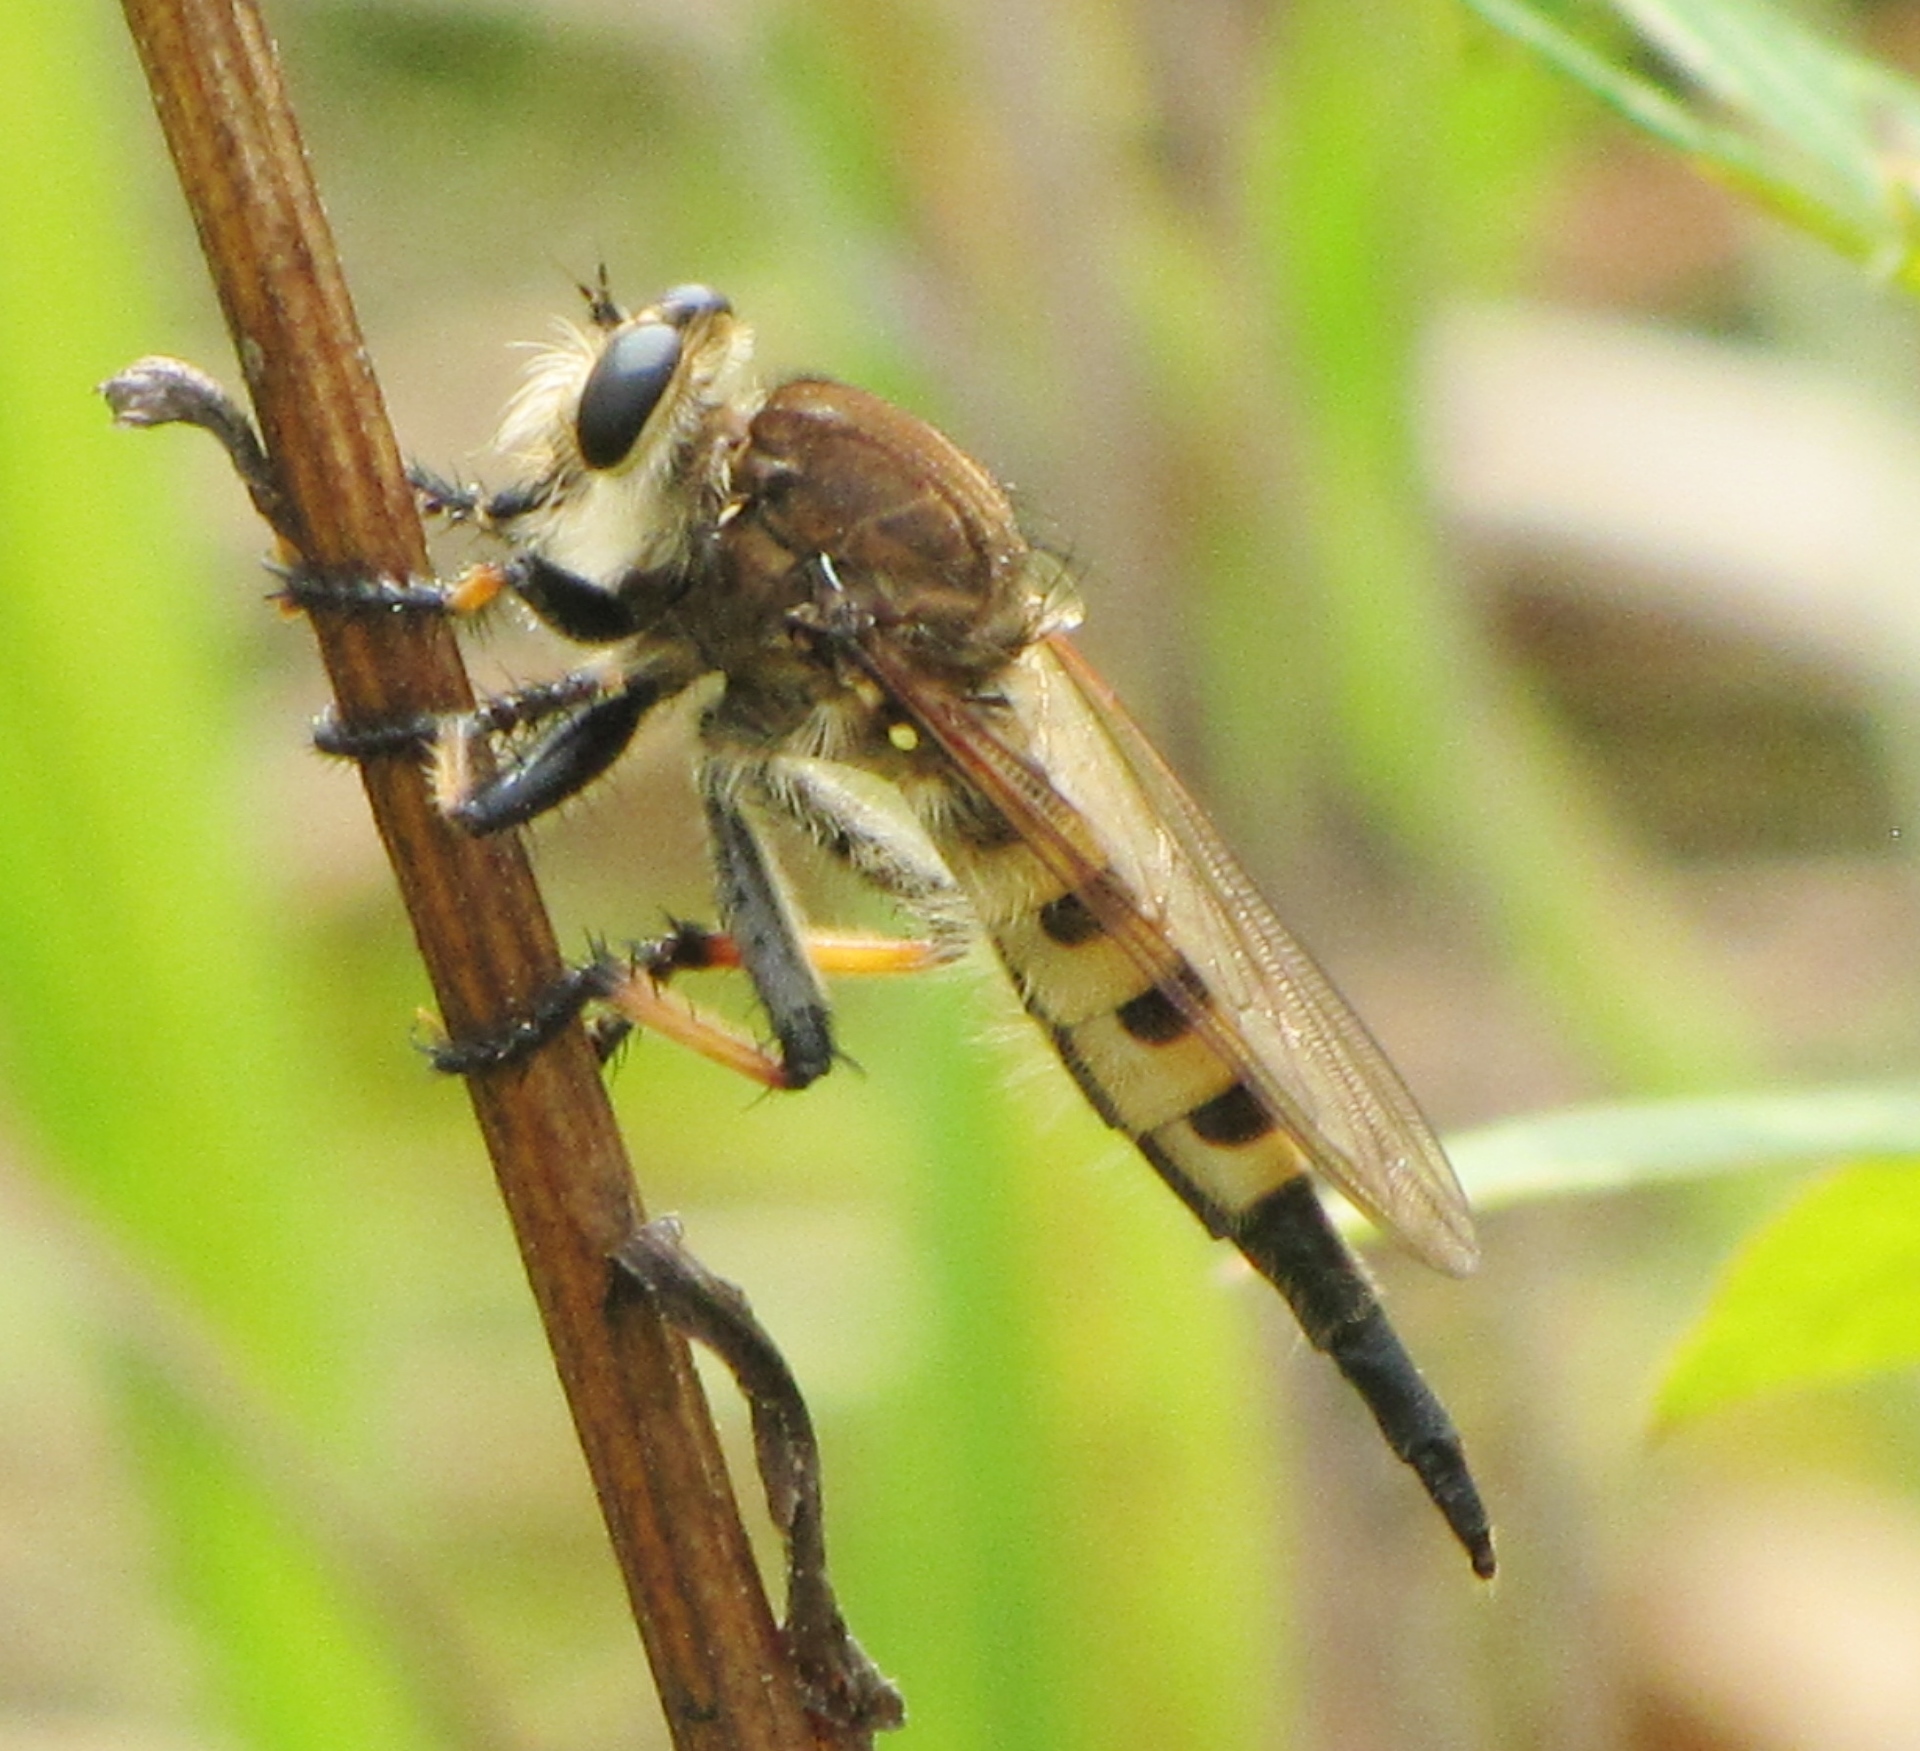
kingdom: Animalia
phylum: Arthropoda
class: Insecta
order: Diptera
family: Asilidae
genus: Promachus
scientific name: Promachus rufipes
